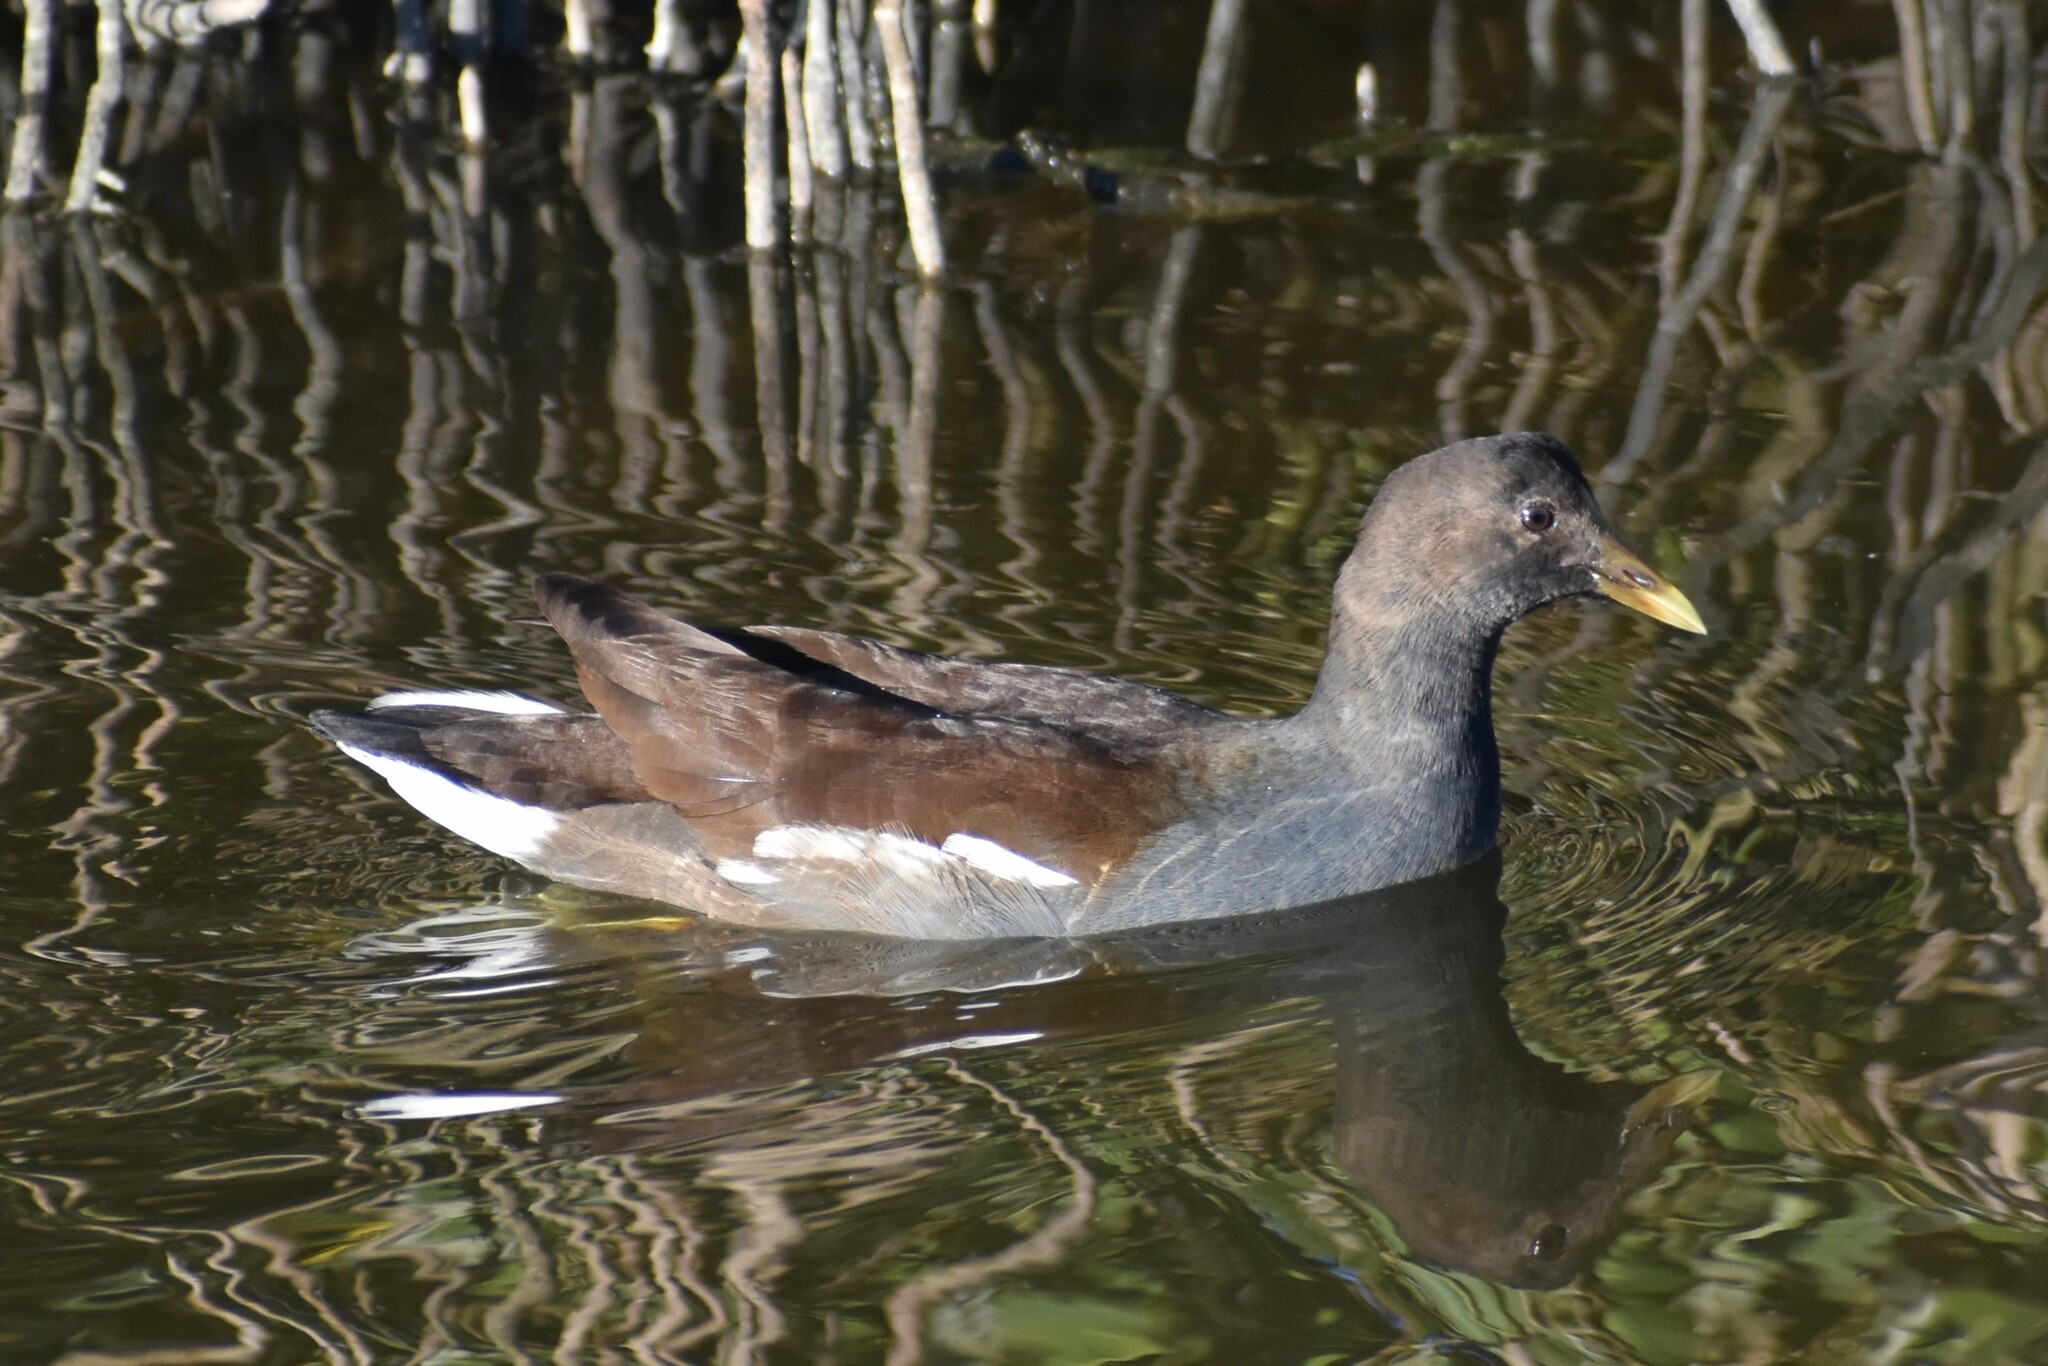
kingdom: Animalia
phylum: Chordata
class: Aves
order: Gruiformes
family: Rallidae
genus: Gallinula
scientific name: Gallinula chloropus
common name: Common moorhen
